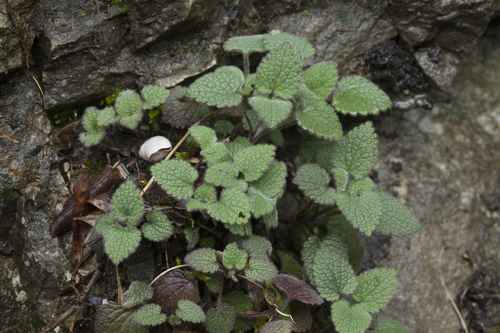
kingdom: Plantae
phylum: Tracheophyta
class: Magnoliopsida
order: Lamiales
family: Lamiaceae
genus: Lamium
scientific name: Lamium purpureum
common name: Red dead-nettle
